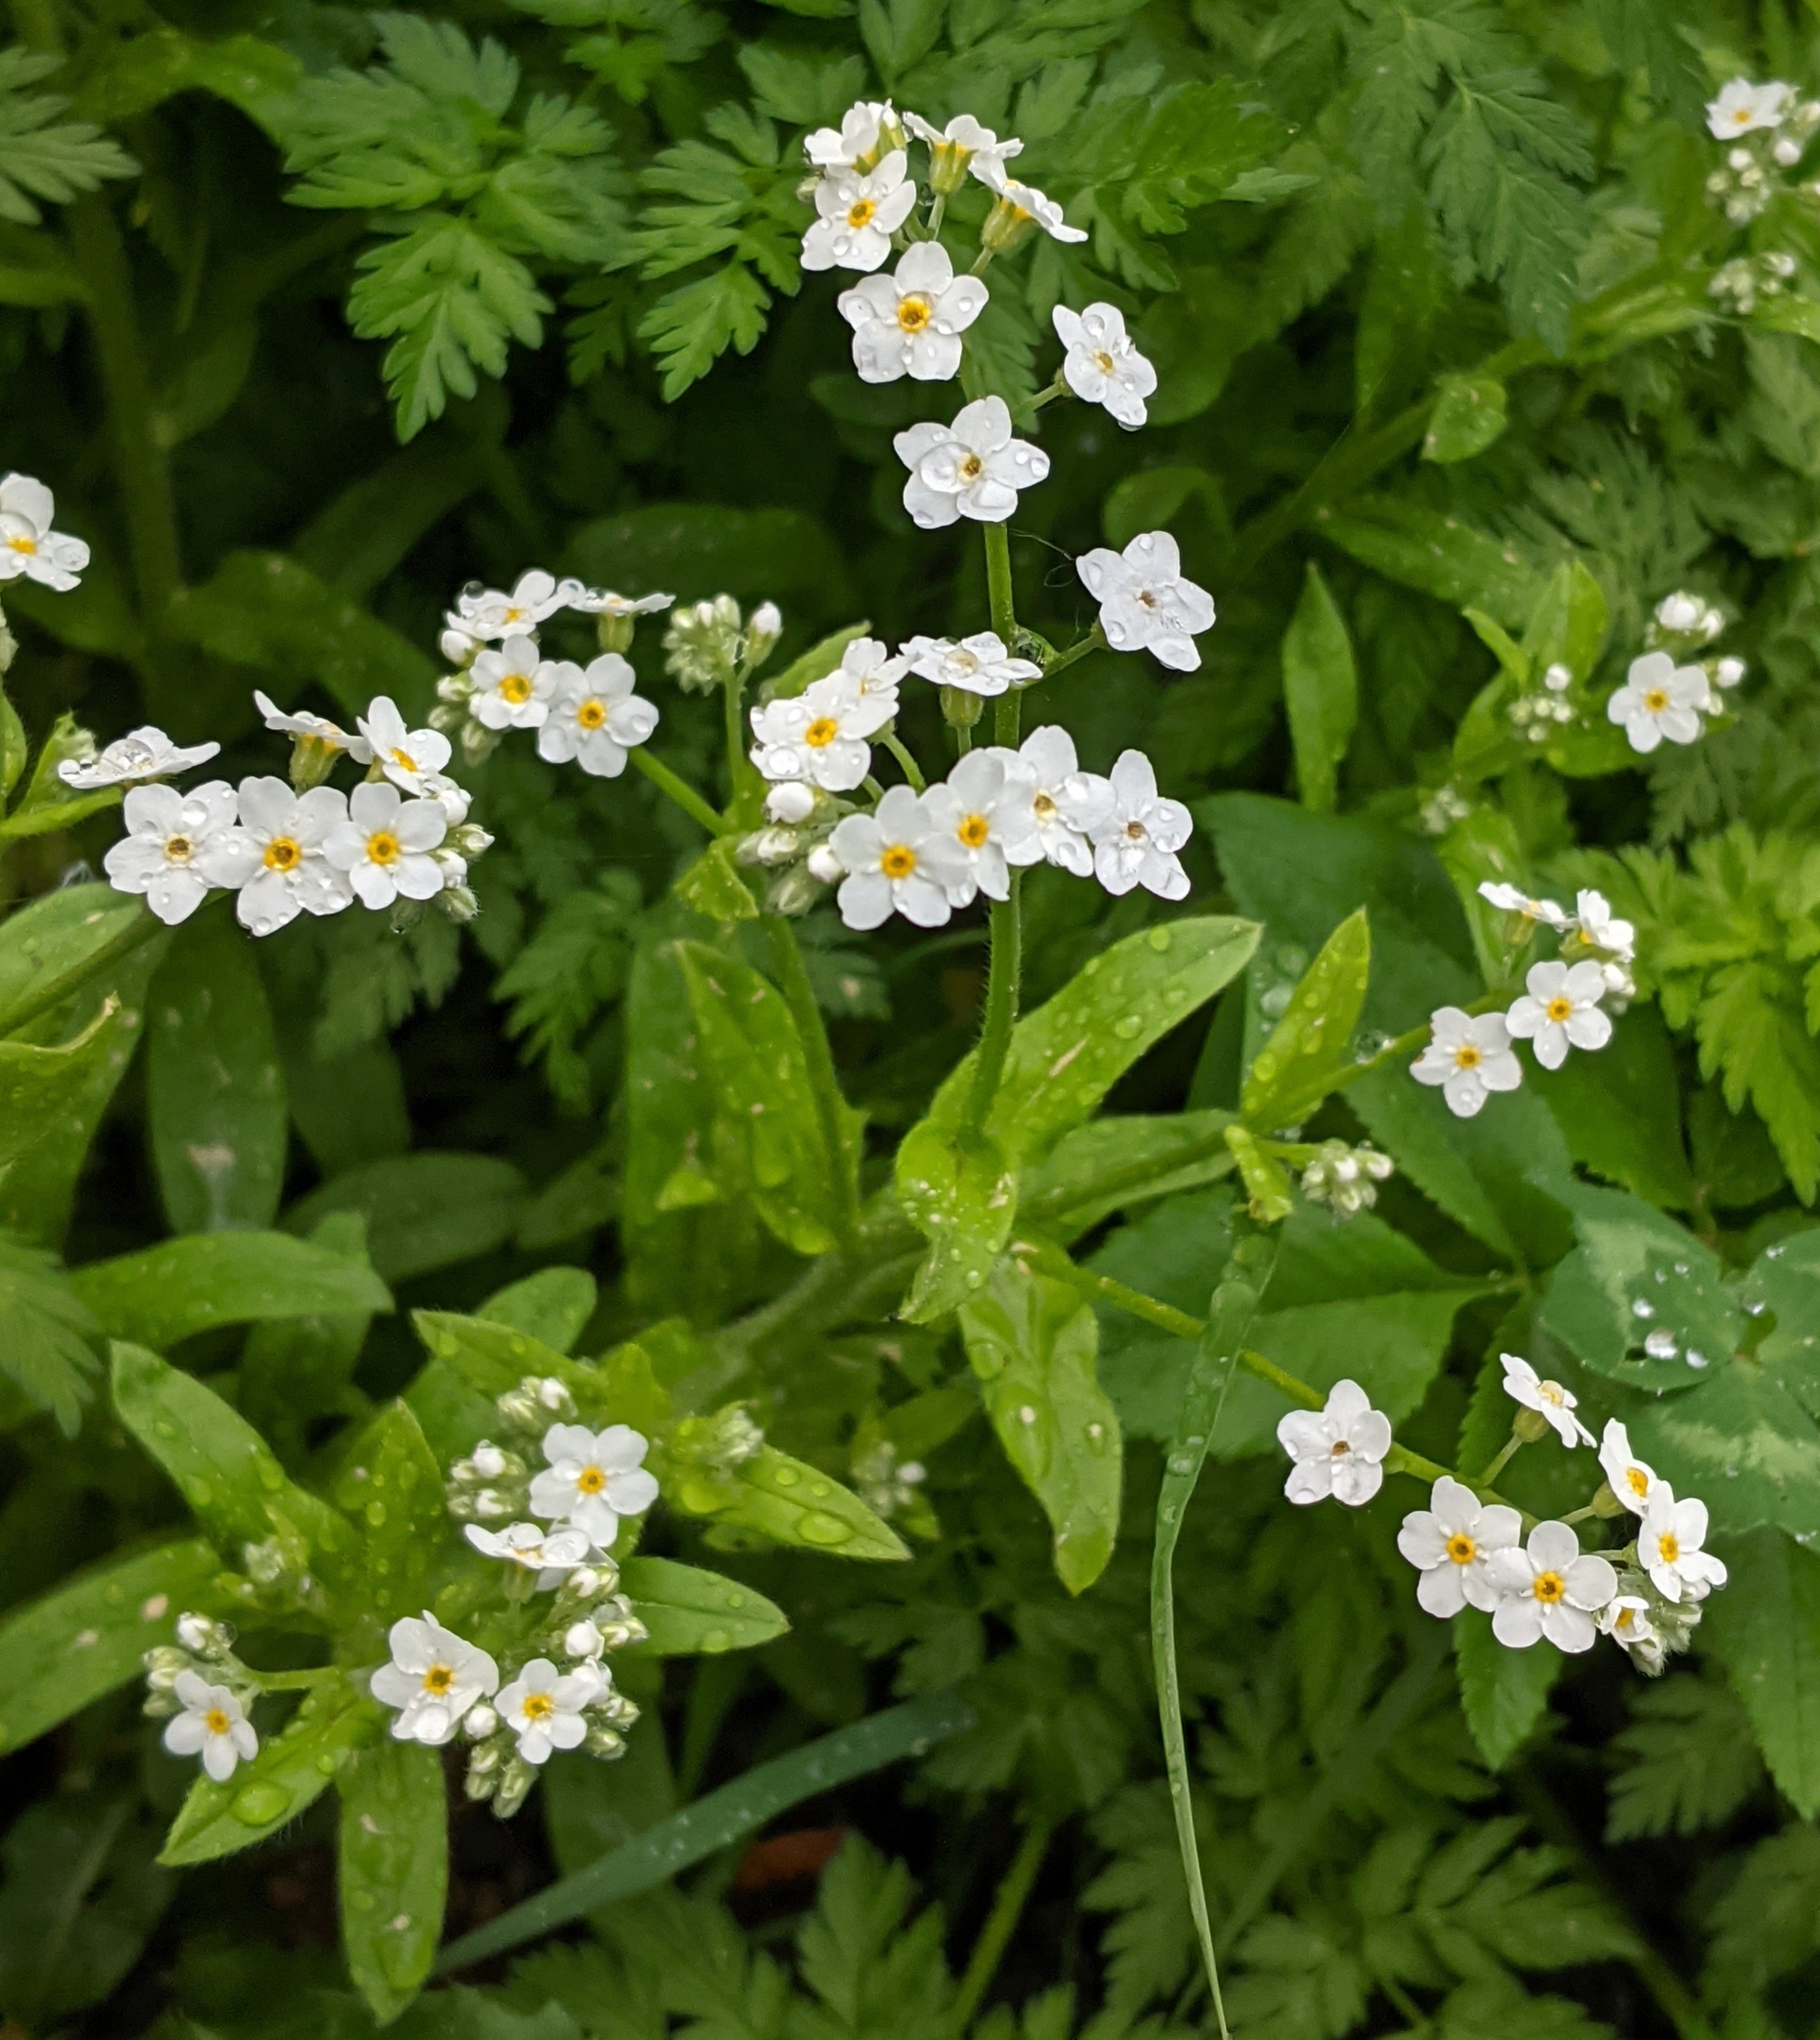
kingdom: Plantae
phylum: Tracheophyta
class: Magnoliopsida
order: Boraginales
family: Boraginaceae
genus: Myosotis
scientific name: Myosotis sylvatica
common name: Wood forget-me-not
